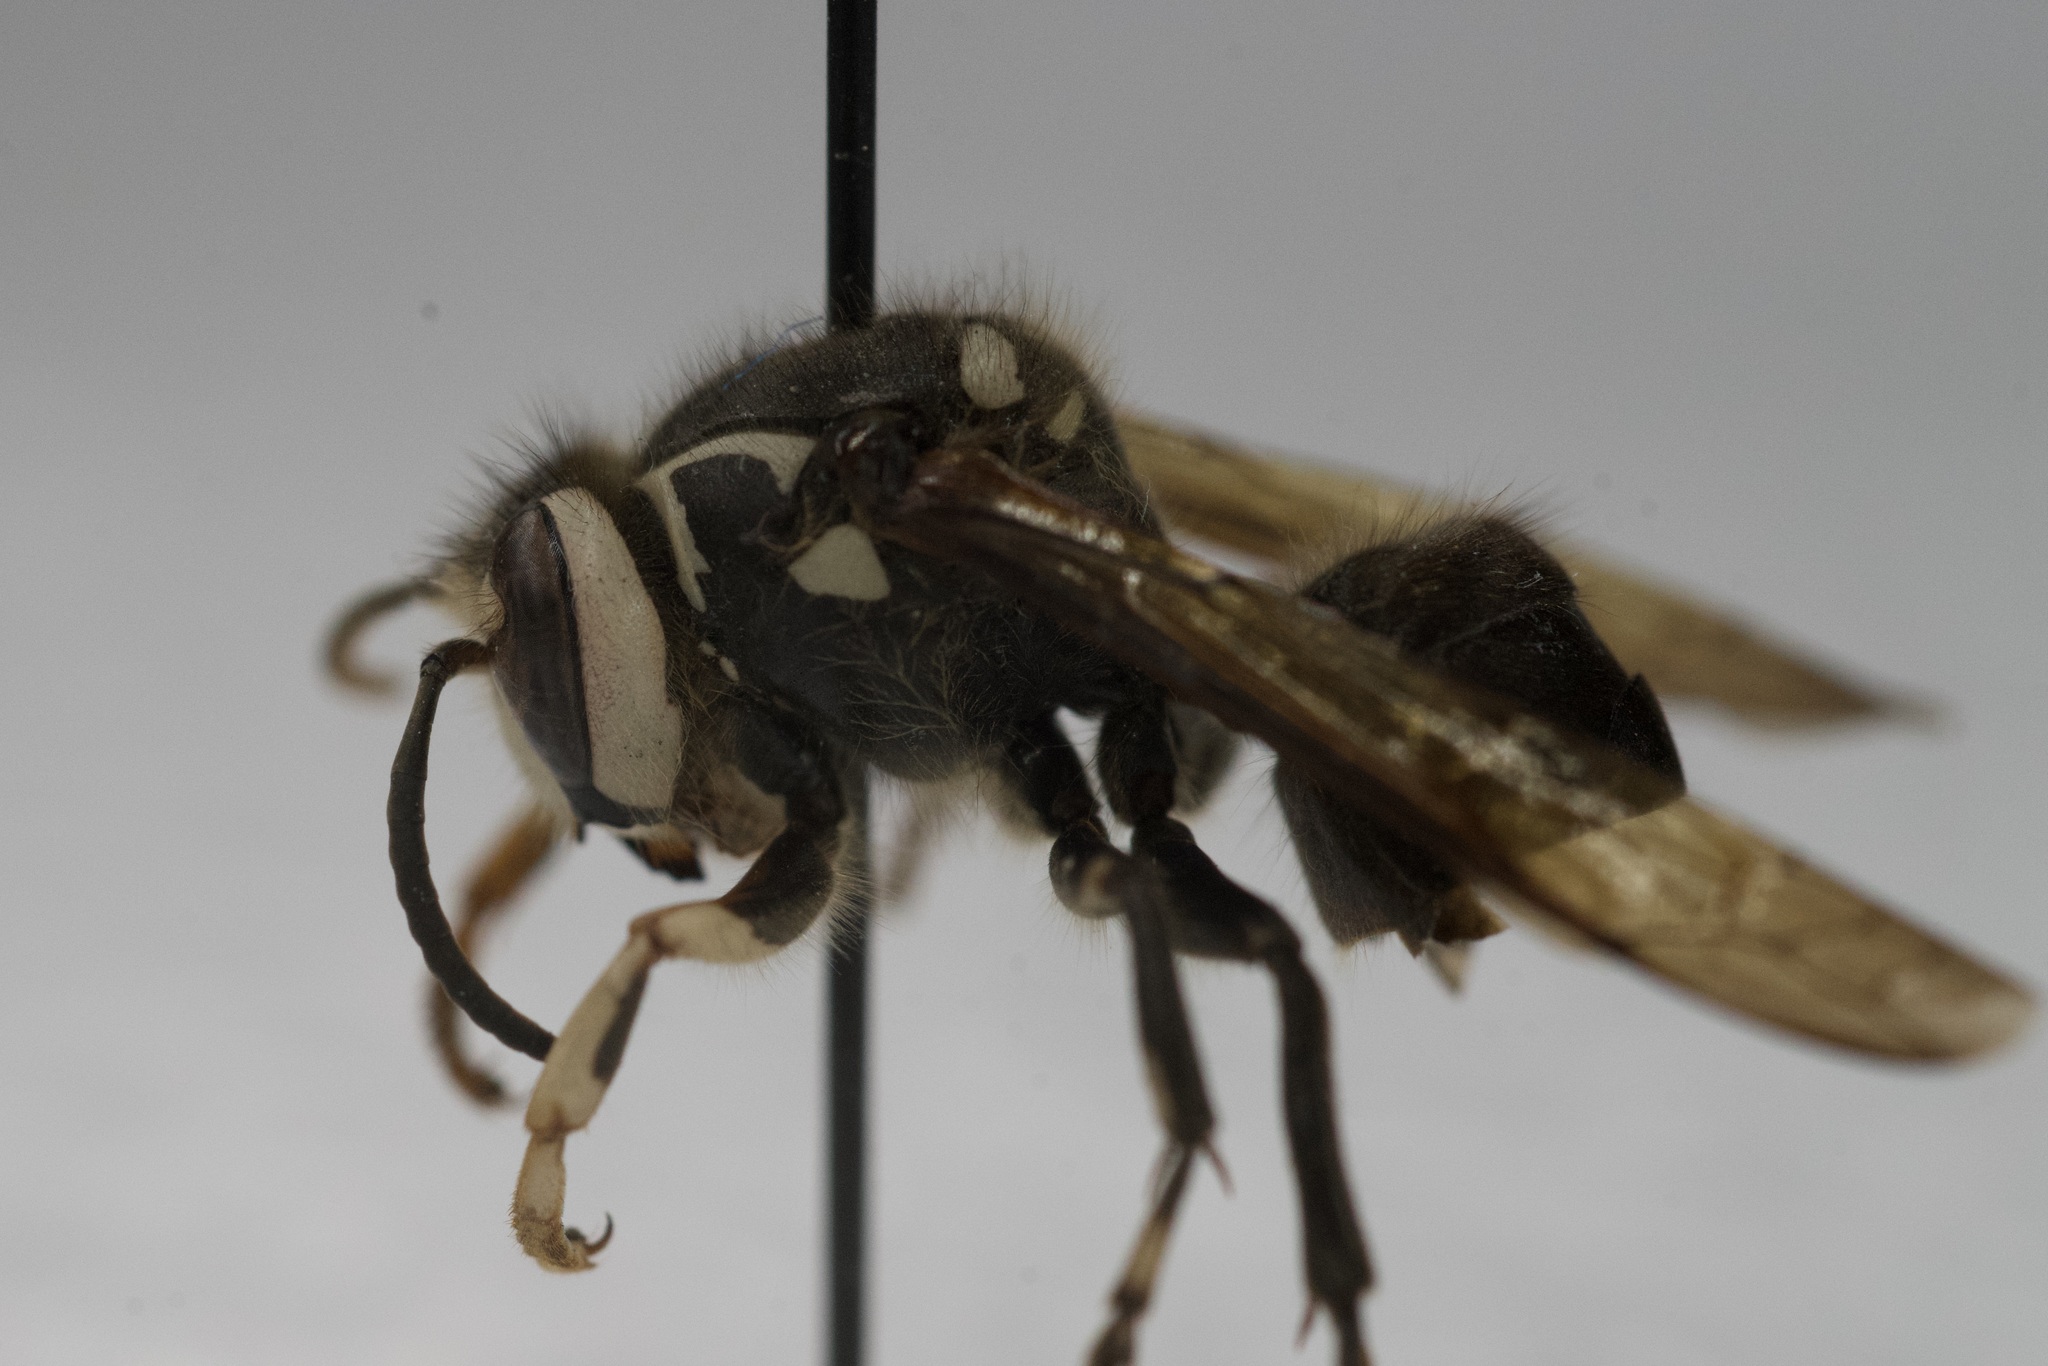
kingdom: Animalia
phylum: Arthropoda
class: Insecta
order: Hymenoptera
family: Vespidae
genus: Dolichovespula
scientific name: Dolichovespula maculata
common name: Bald-faced hornet
